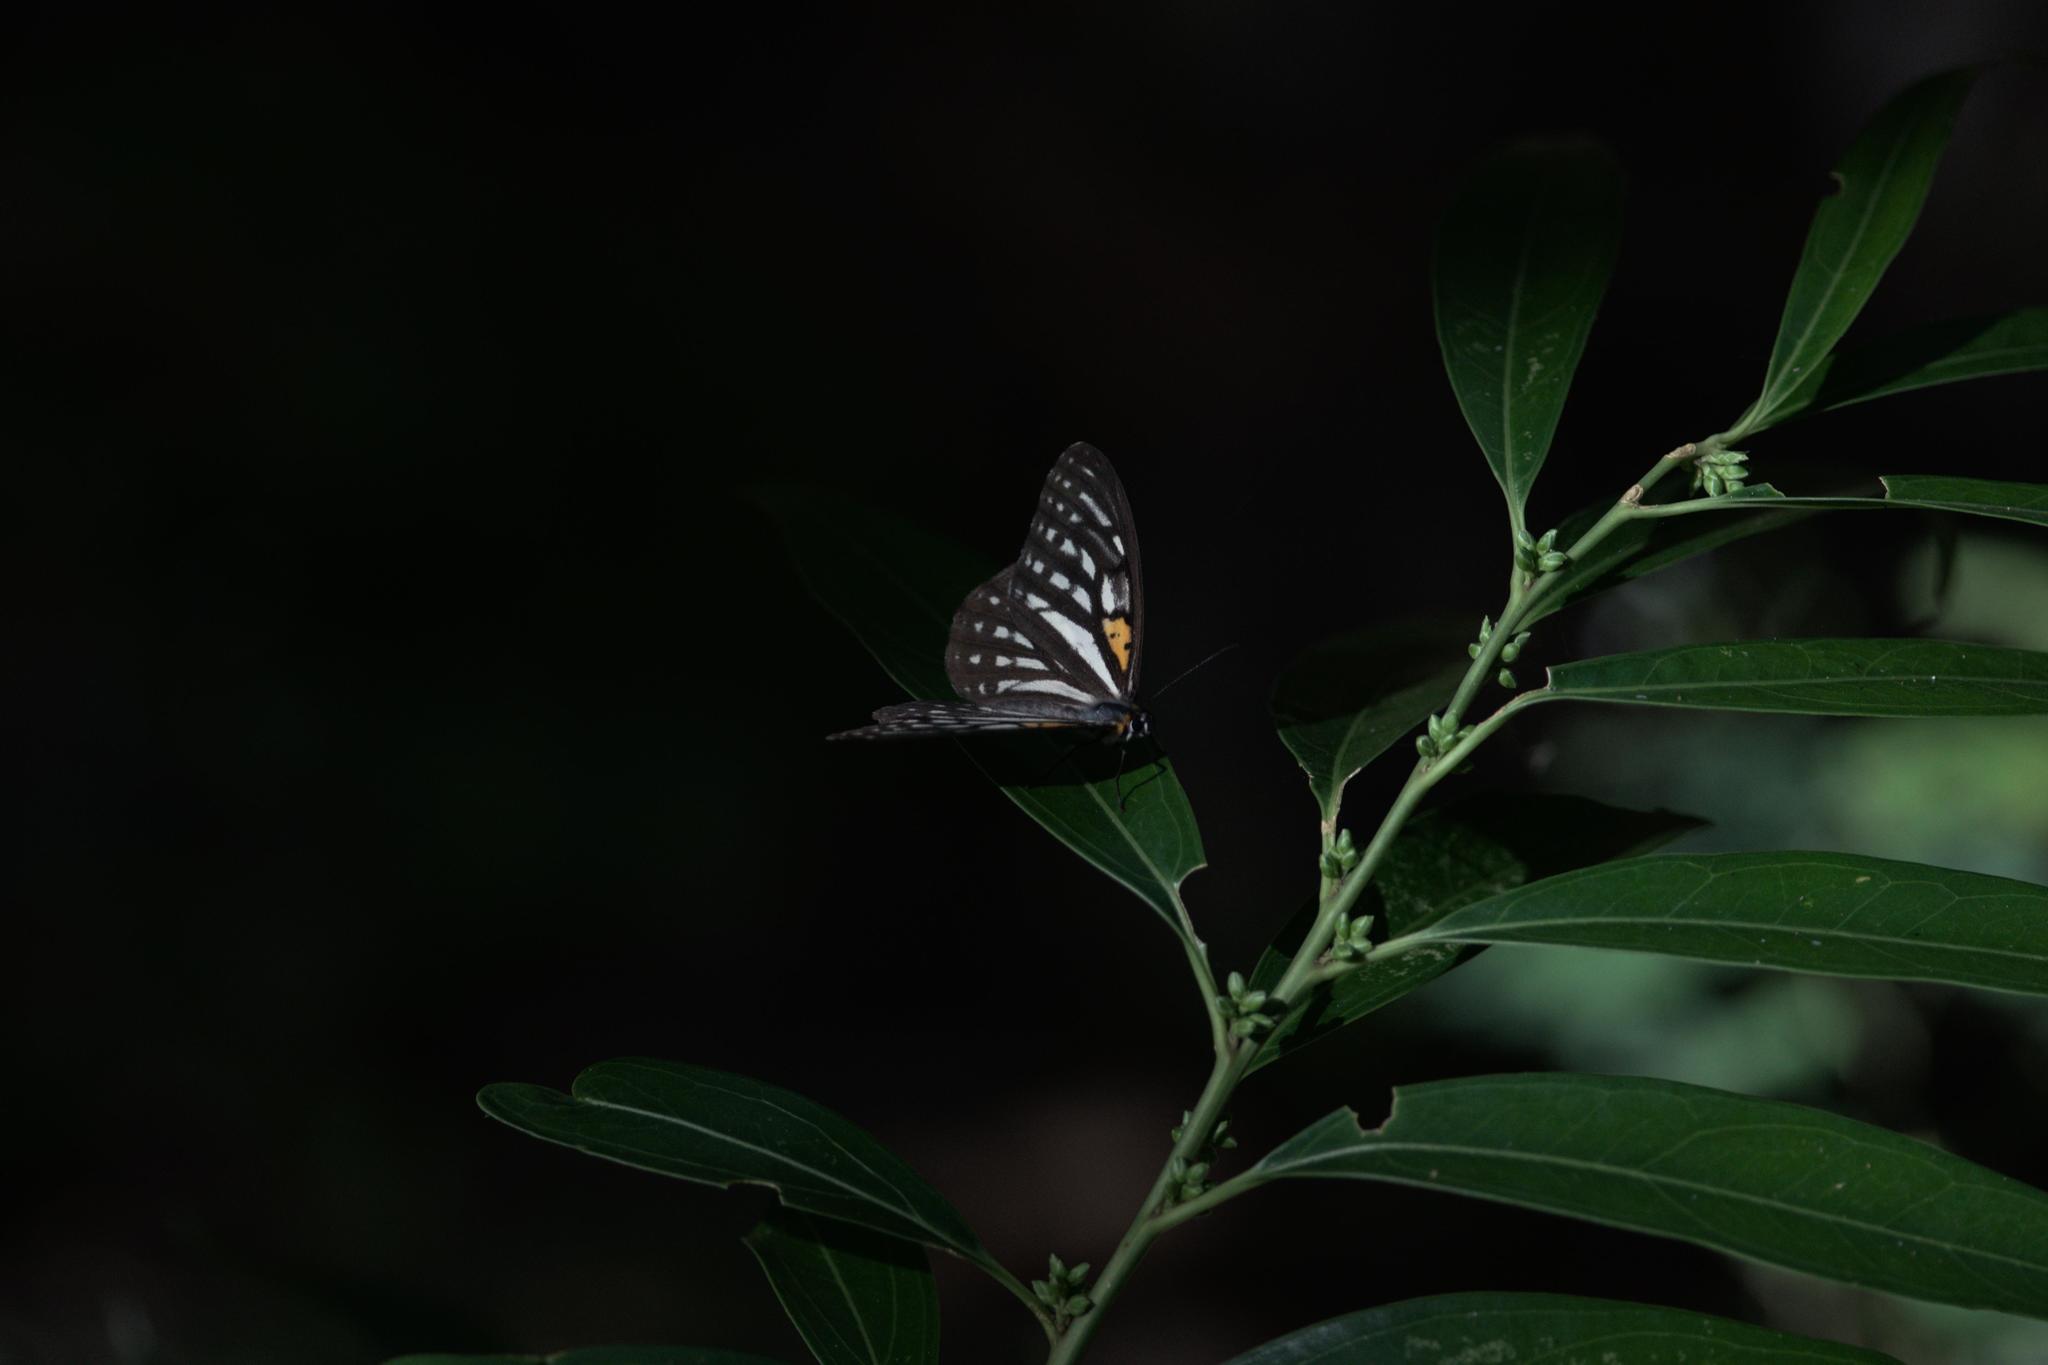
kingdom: Animalia
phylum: Arthropoda
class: Insecta
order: Lepidoptera
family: Nymphalidae
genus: Orinoma
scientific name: Orinoma damaris
